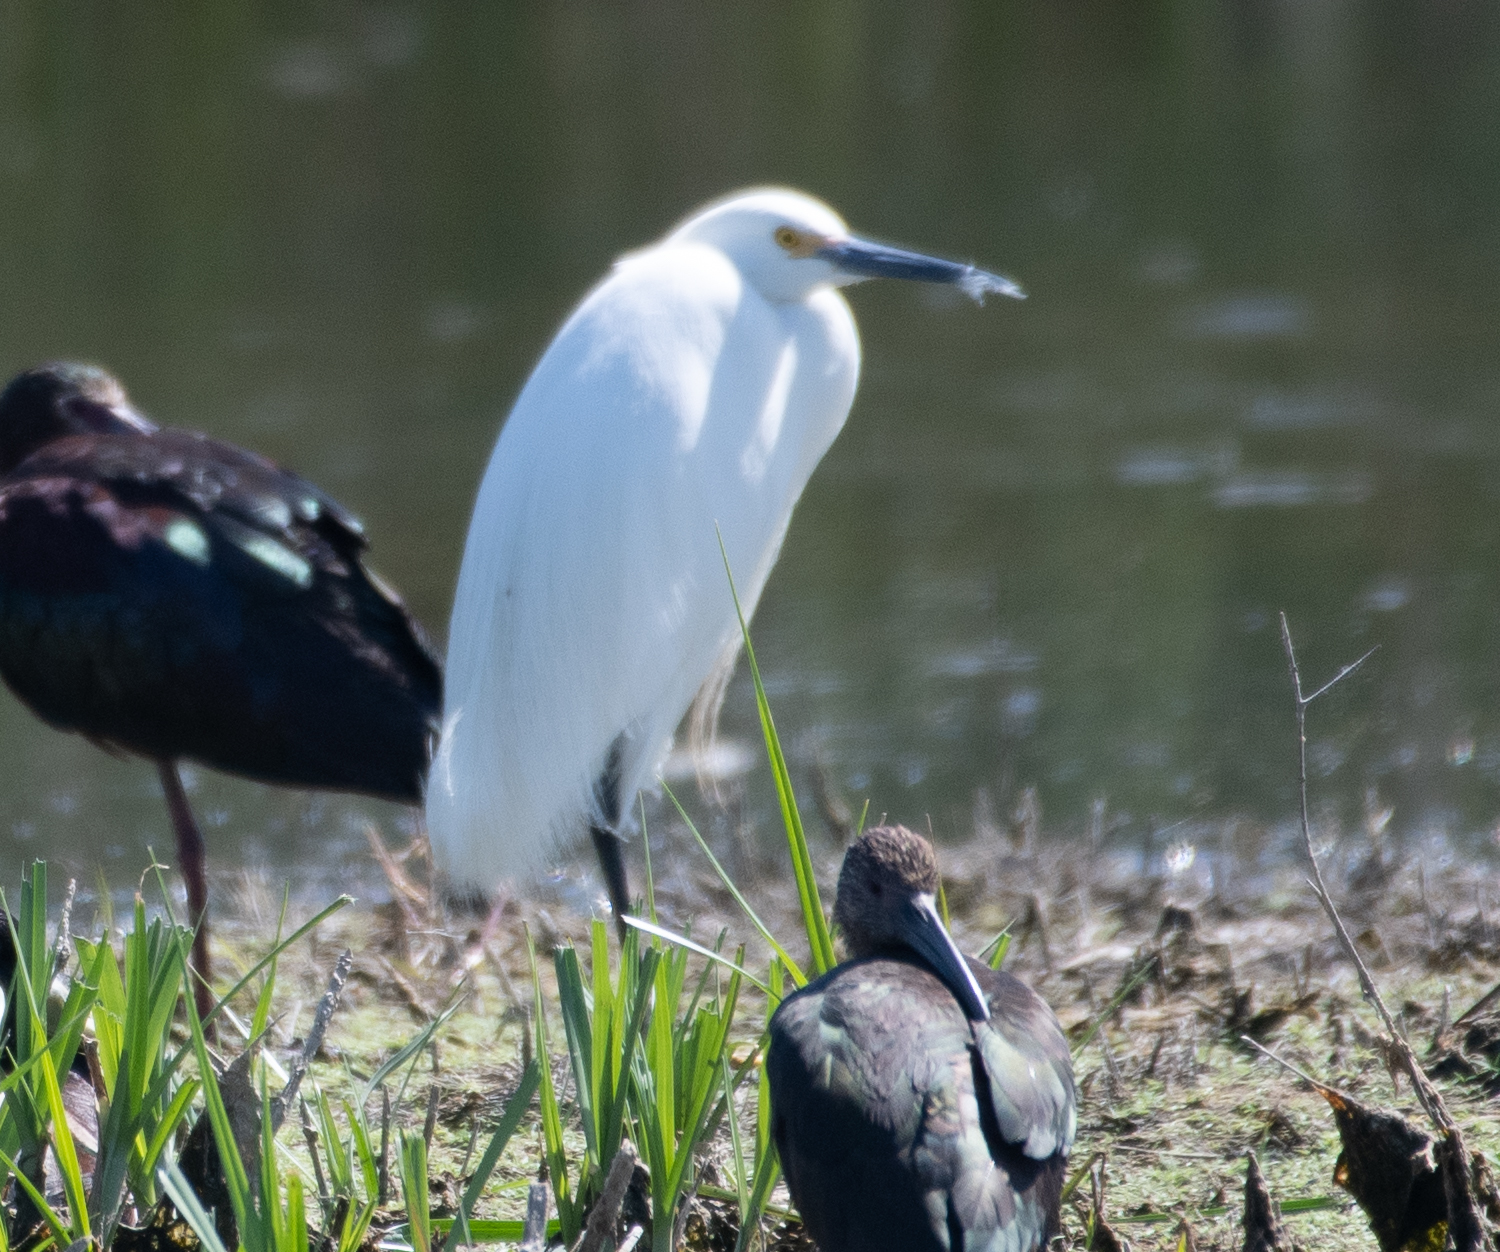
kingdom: Animalia
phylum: Chordata
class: Aves
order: Pelecaniformes
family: Ardeidae
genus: Egretta
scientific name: Egretta thula
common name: Snowy egret
